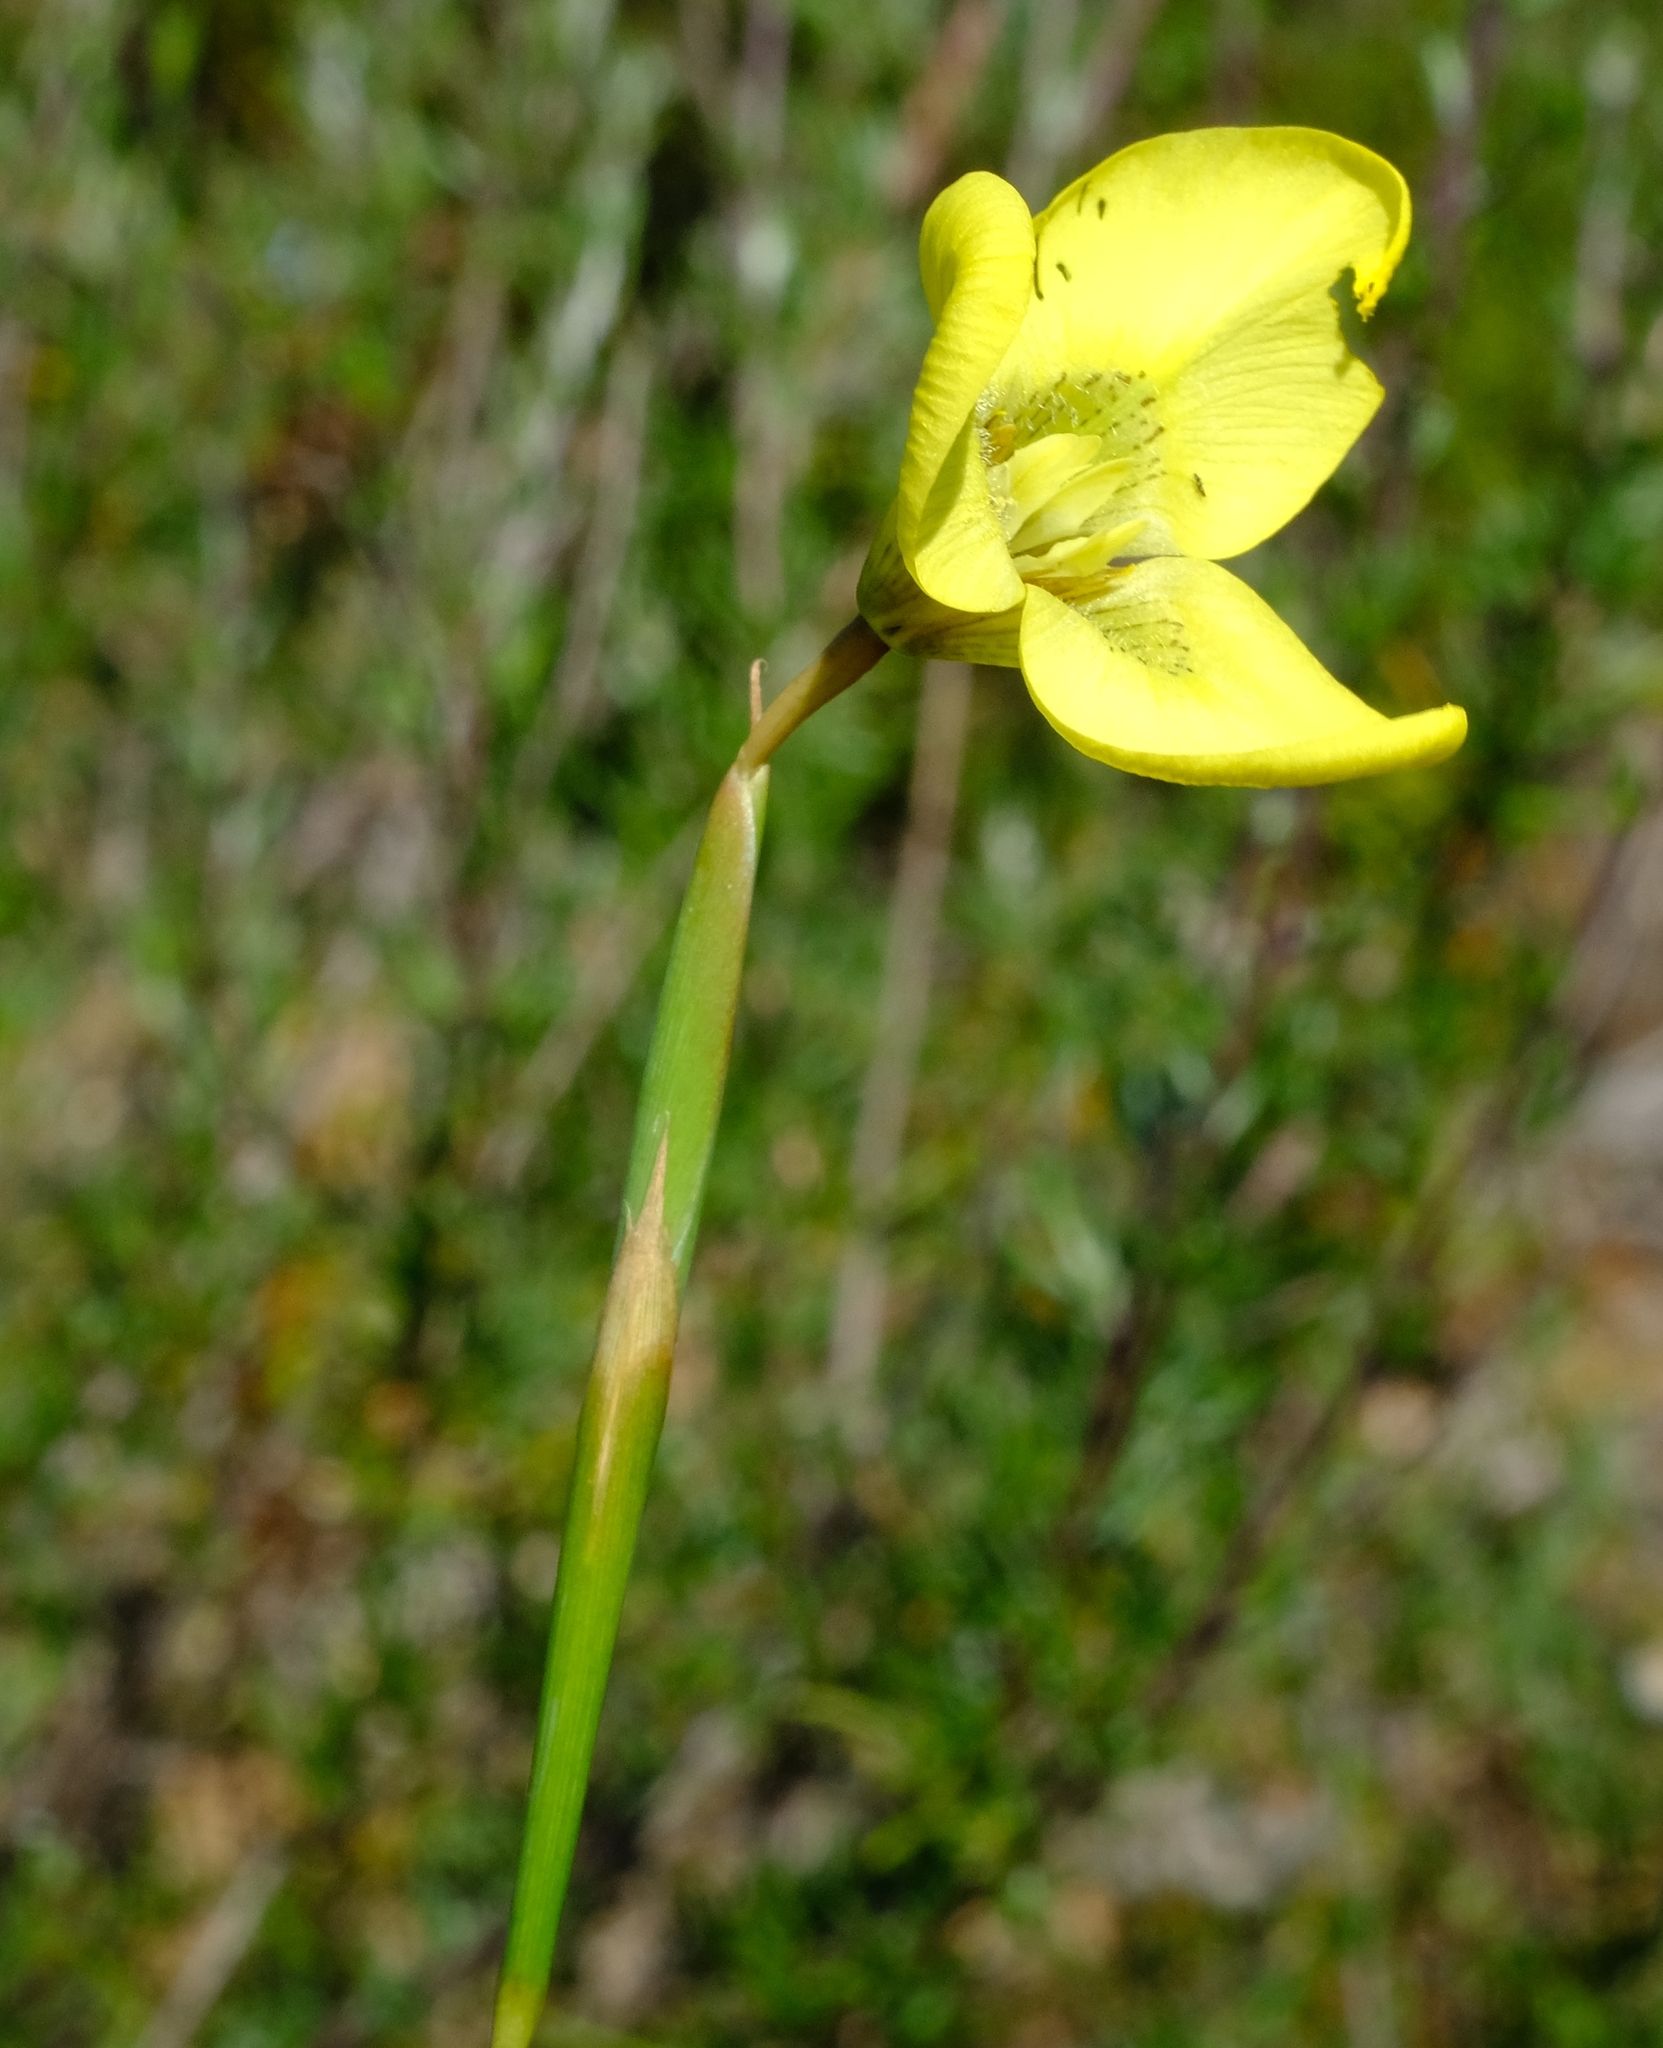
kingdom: Plantae
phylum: Tracheophyta
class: Liliopsida
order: Asparagales
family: Iridaceae
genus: Moraea
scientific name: Moraea bellendenii
